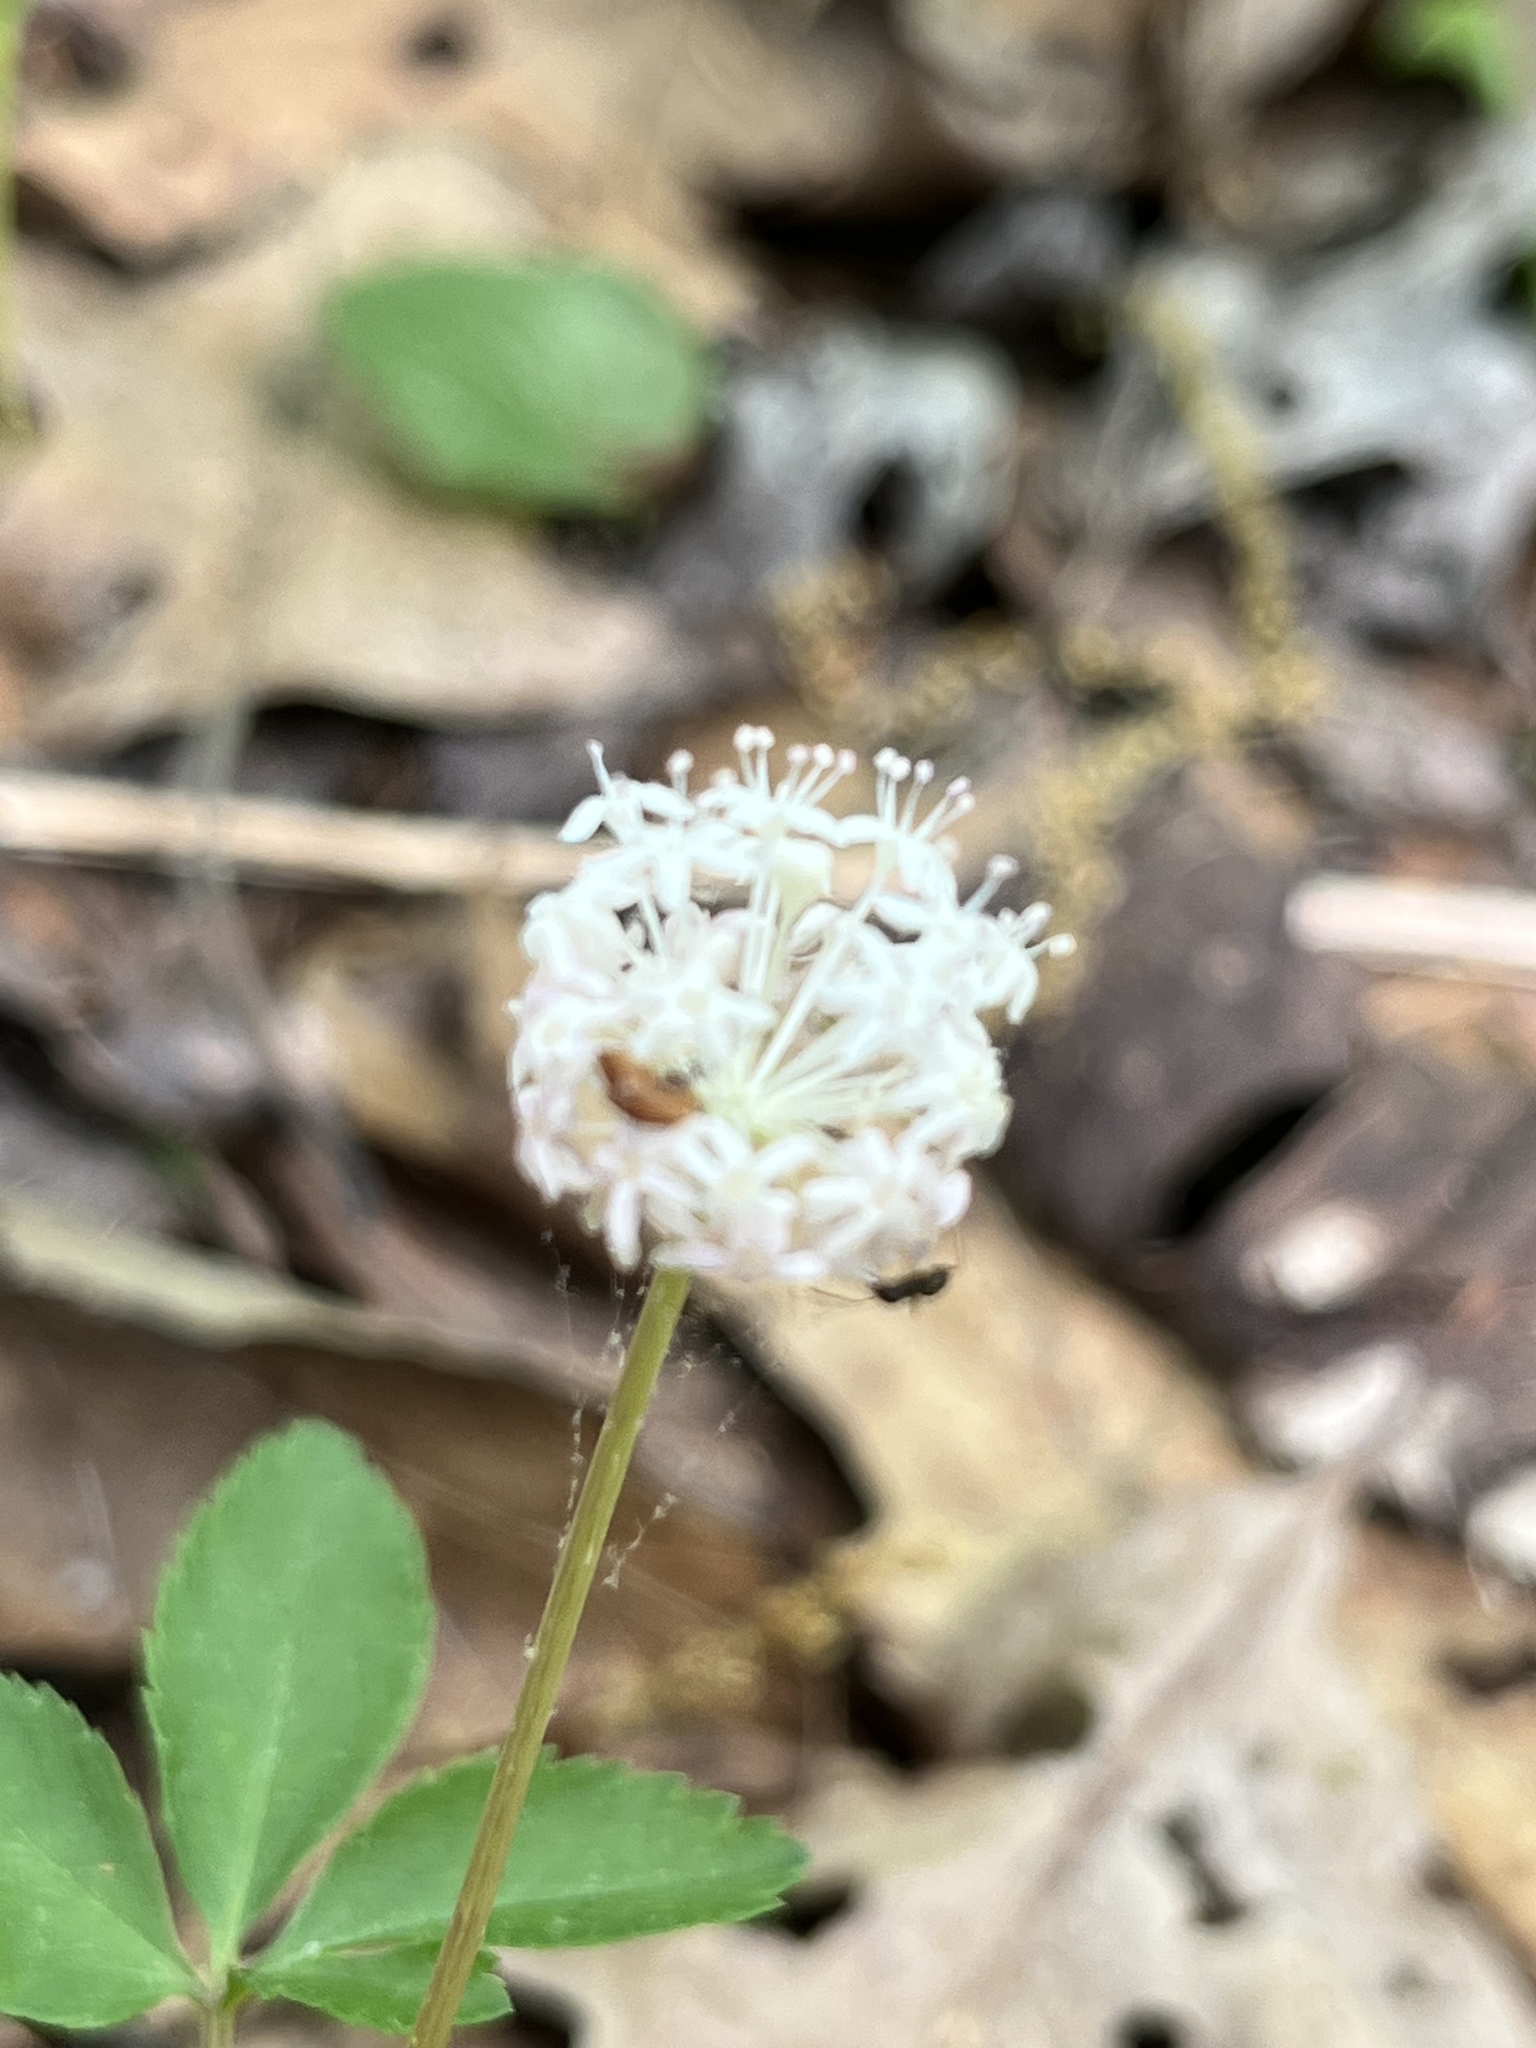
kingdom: Plantae
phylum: Tracheophyta
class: Magnoliopsida
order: Apiales
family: Araliaceae
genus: Panax
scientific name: Panax trifolius
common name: Dwarf ginseng
